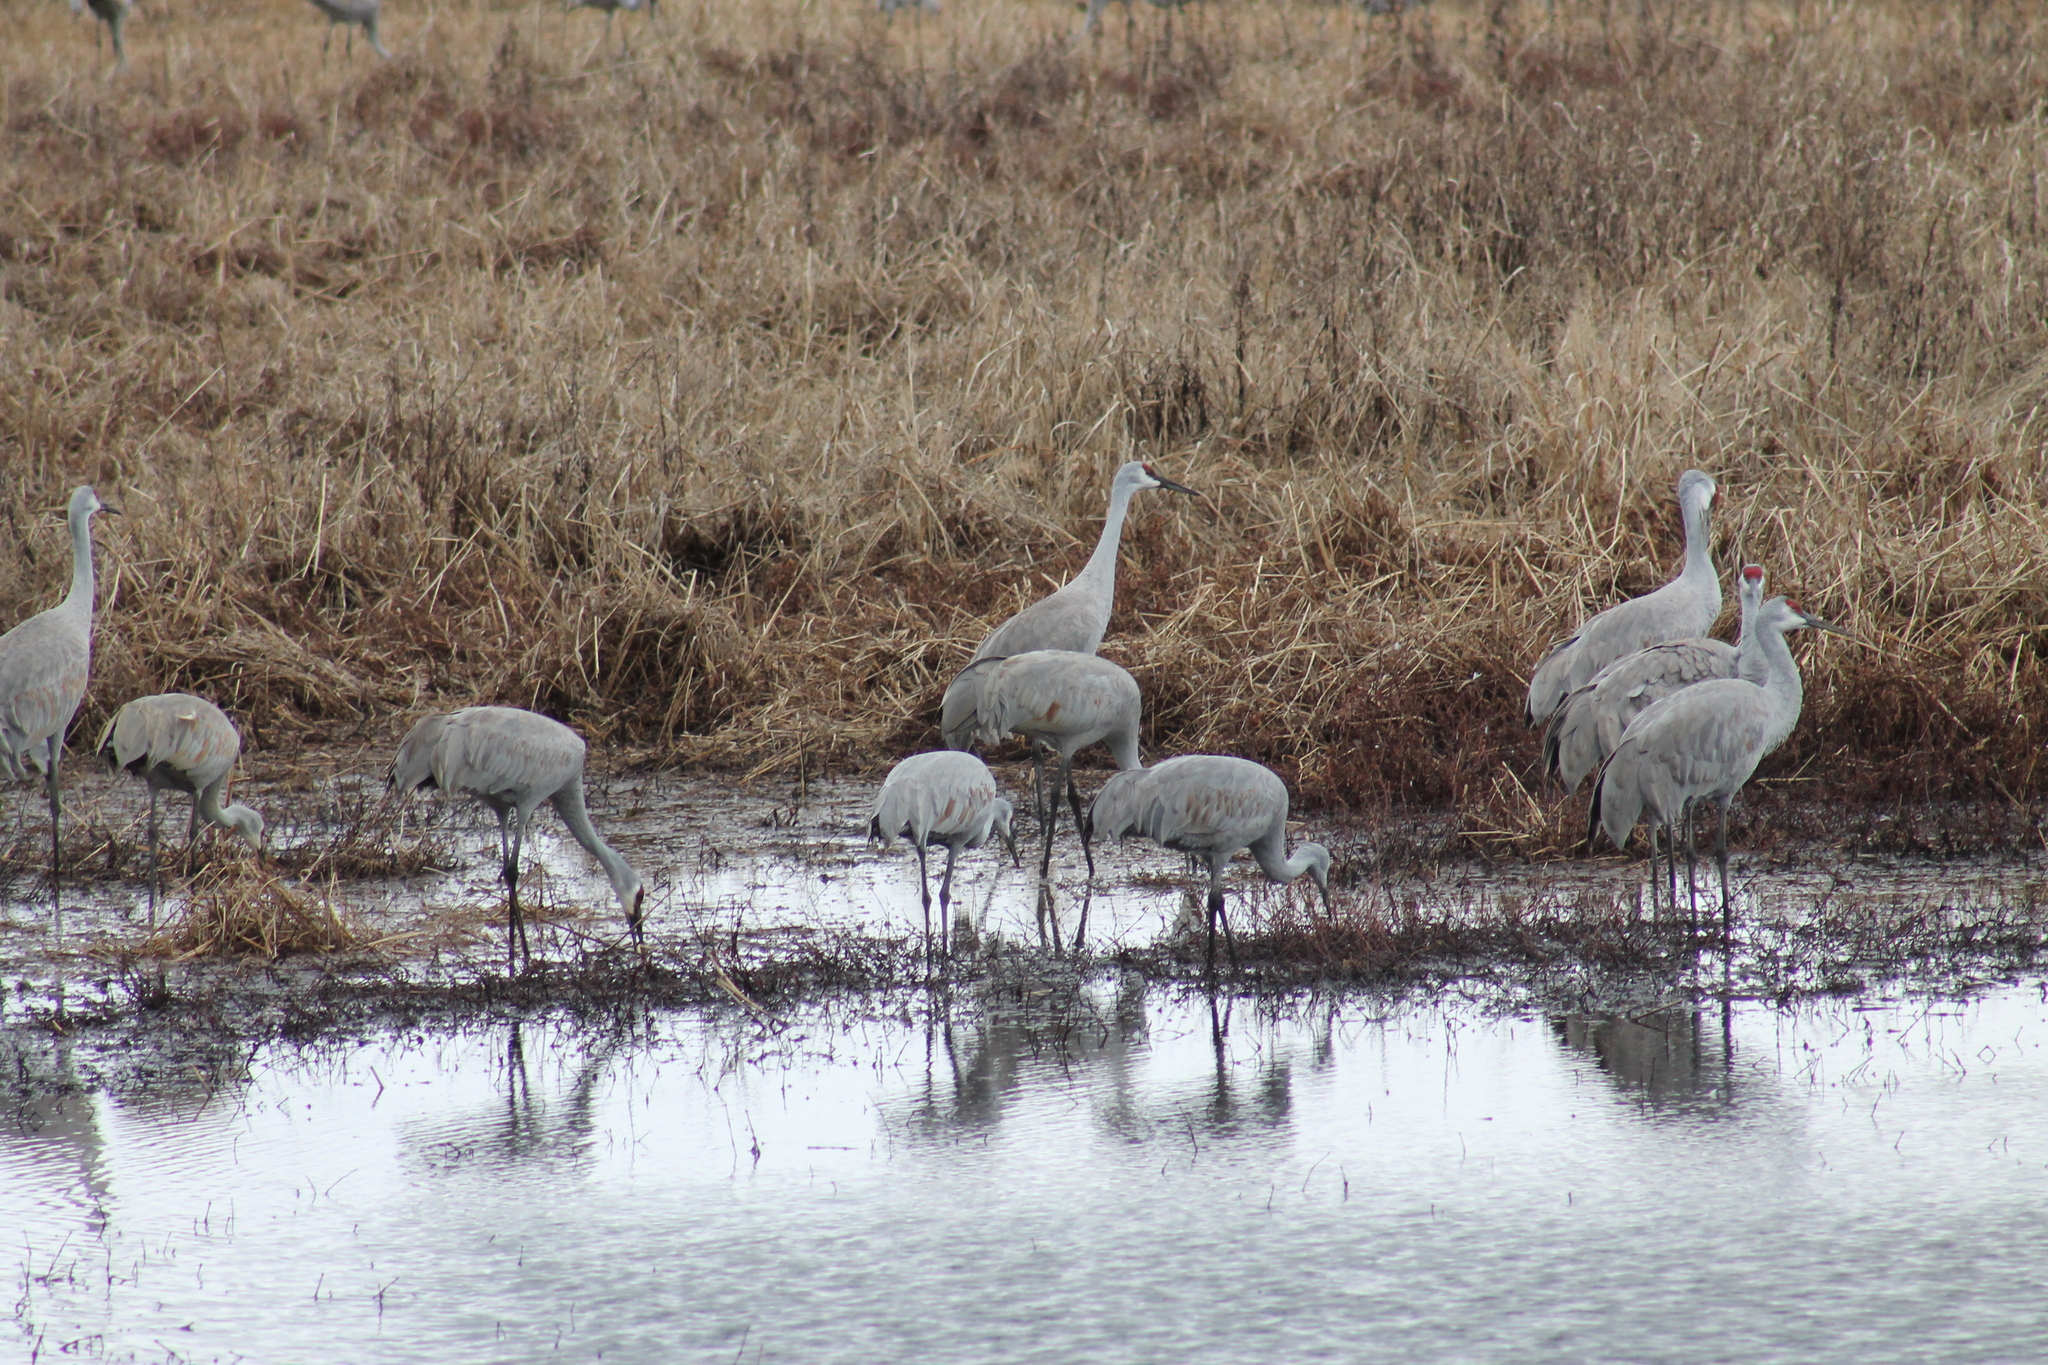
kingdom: Animalia
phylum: Chordata
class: Aves
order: Gruiformes
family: Gruidae
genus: Grus
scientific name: Grus canadensis
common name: Sandhill crane
